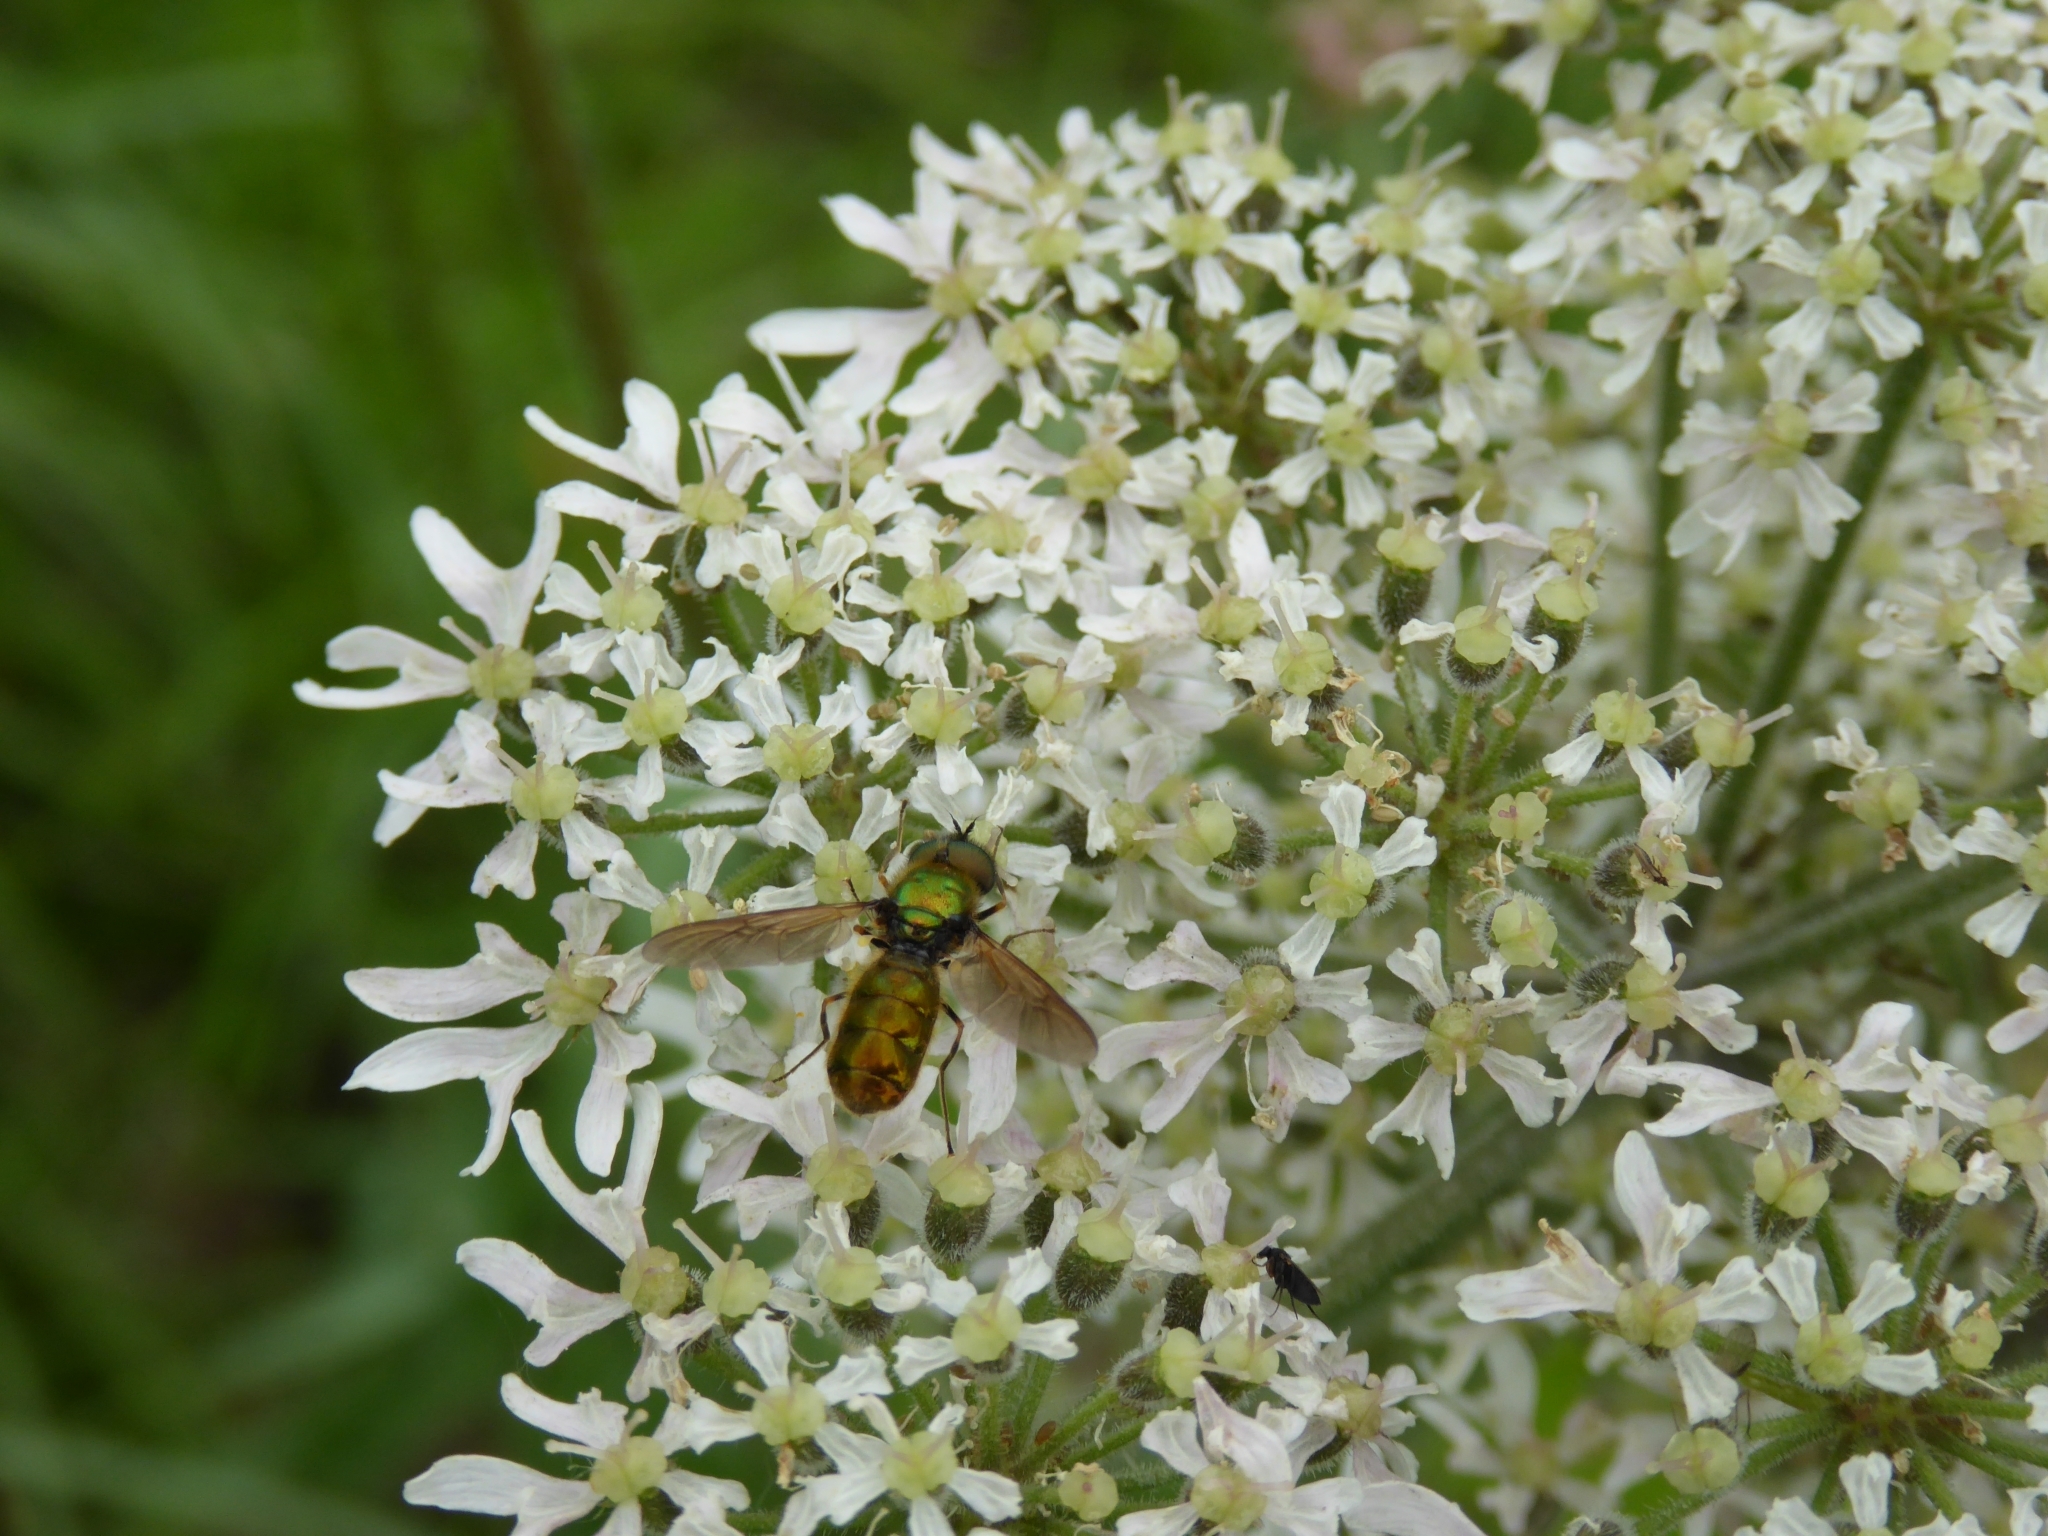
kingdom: Animalia
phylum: Arthropoda
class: Insecta
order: Diptera
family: Stratiomyidae
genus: Chloromyia
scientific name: Chloromyia formosa
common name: Soldier fly
